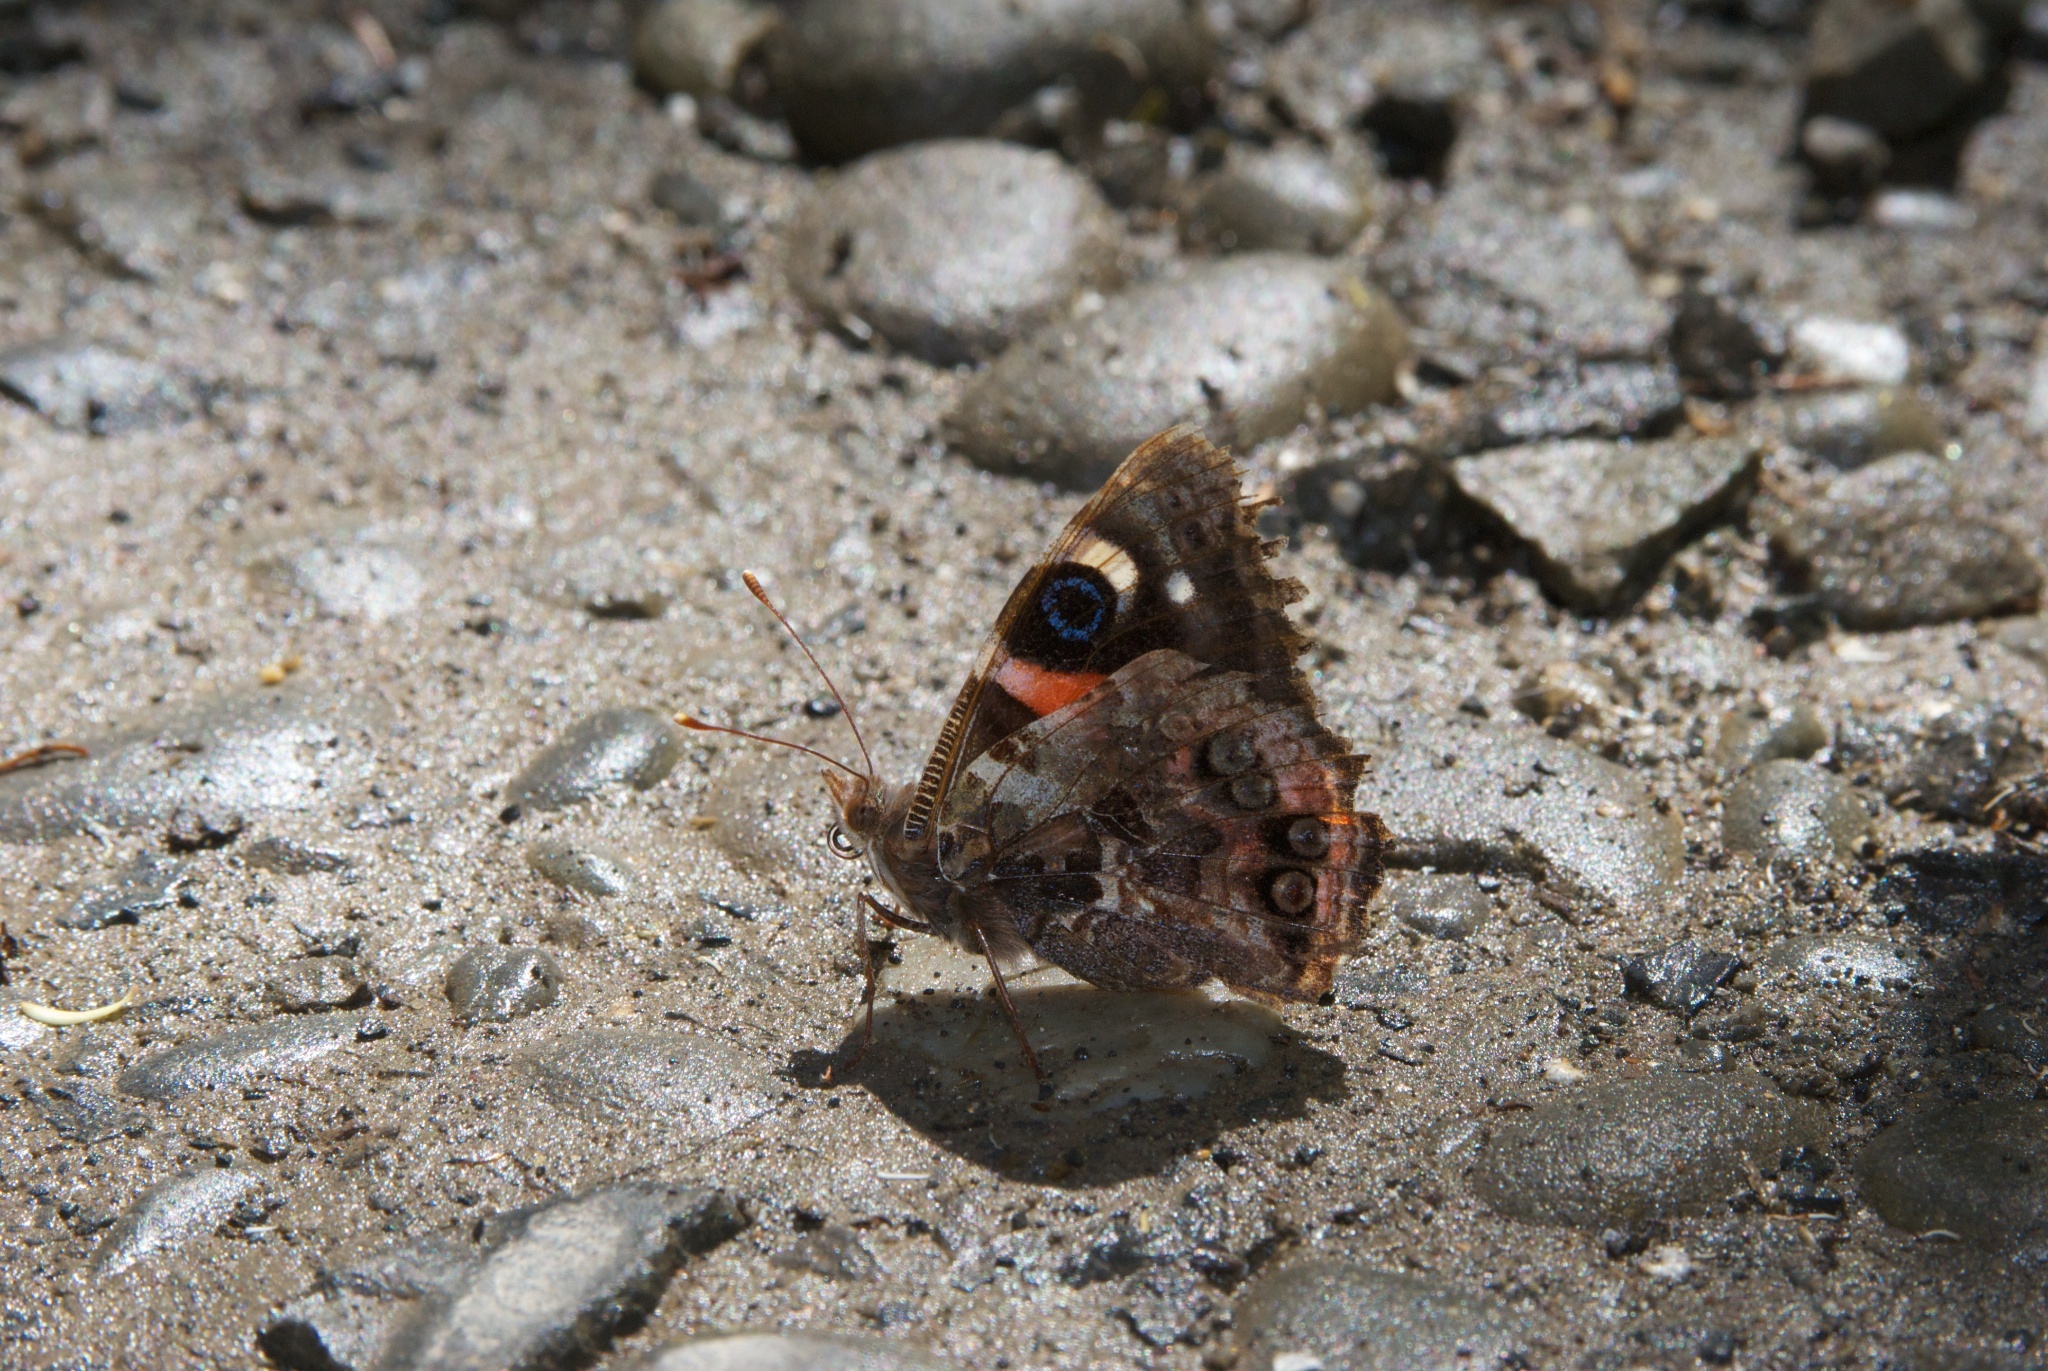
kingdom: Animalia
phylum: Arthropoda
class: Insecta
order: Lepidoptera
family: Nymphalidae
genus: Vanessa
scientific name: Vanessa gonerilla
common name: New zealand red admiral
